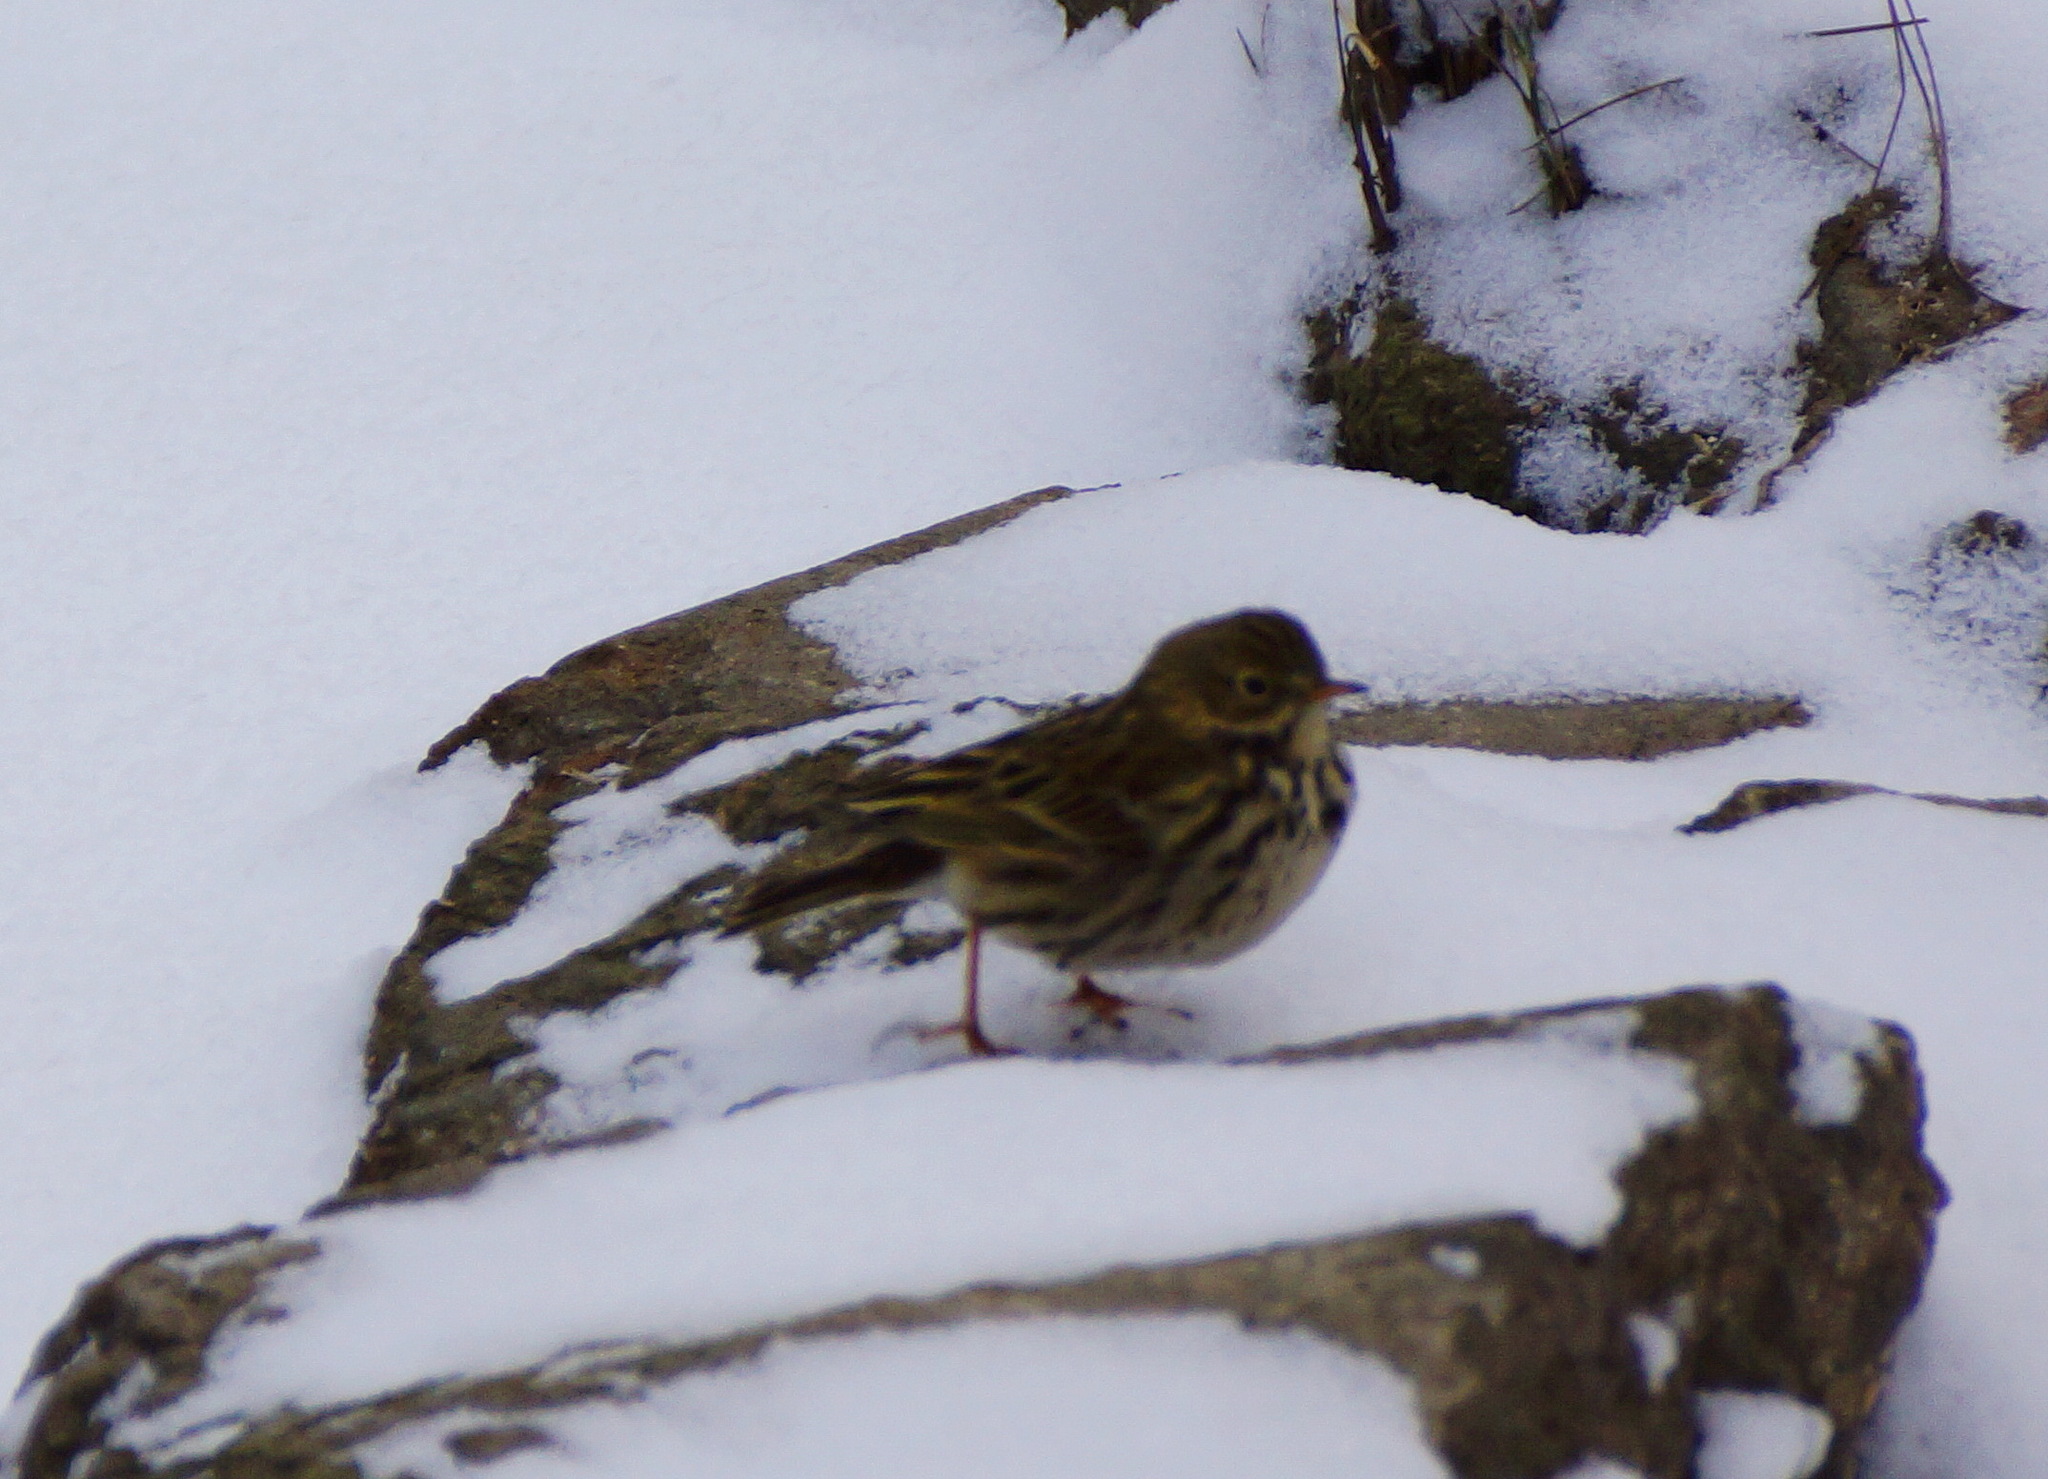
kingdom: Animalia
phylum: Chordata
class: Aves
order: Passeriformes
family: Motacillidae
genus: Anthus
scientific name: Anthus pratensis
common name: Meadow pipit
